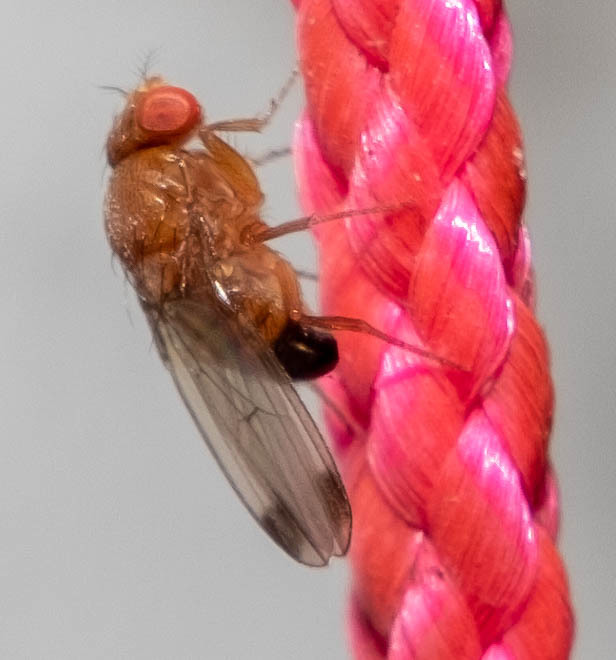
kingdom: Animalia
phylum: Arthropoda
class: Insecta
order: Diptera
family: Drosophilidae
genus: Drosophila
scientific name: Drosophila suzukii
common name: Spotted-wing drosophila
